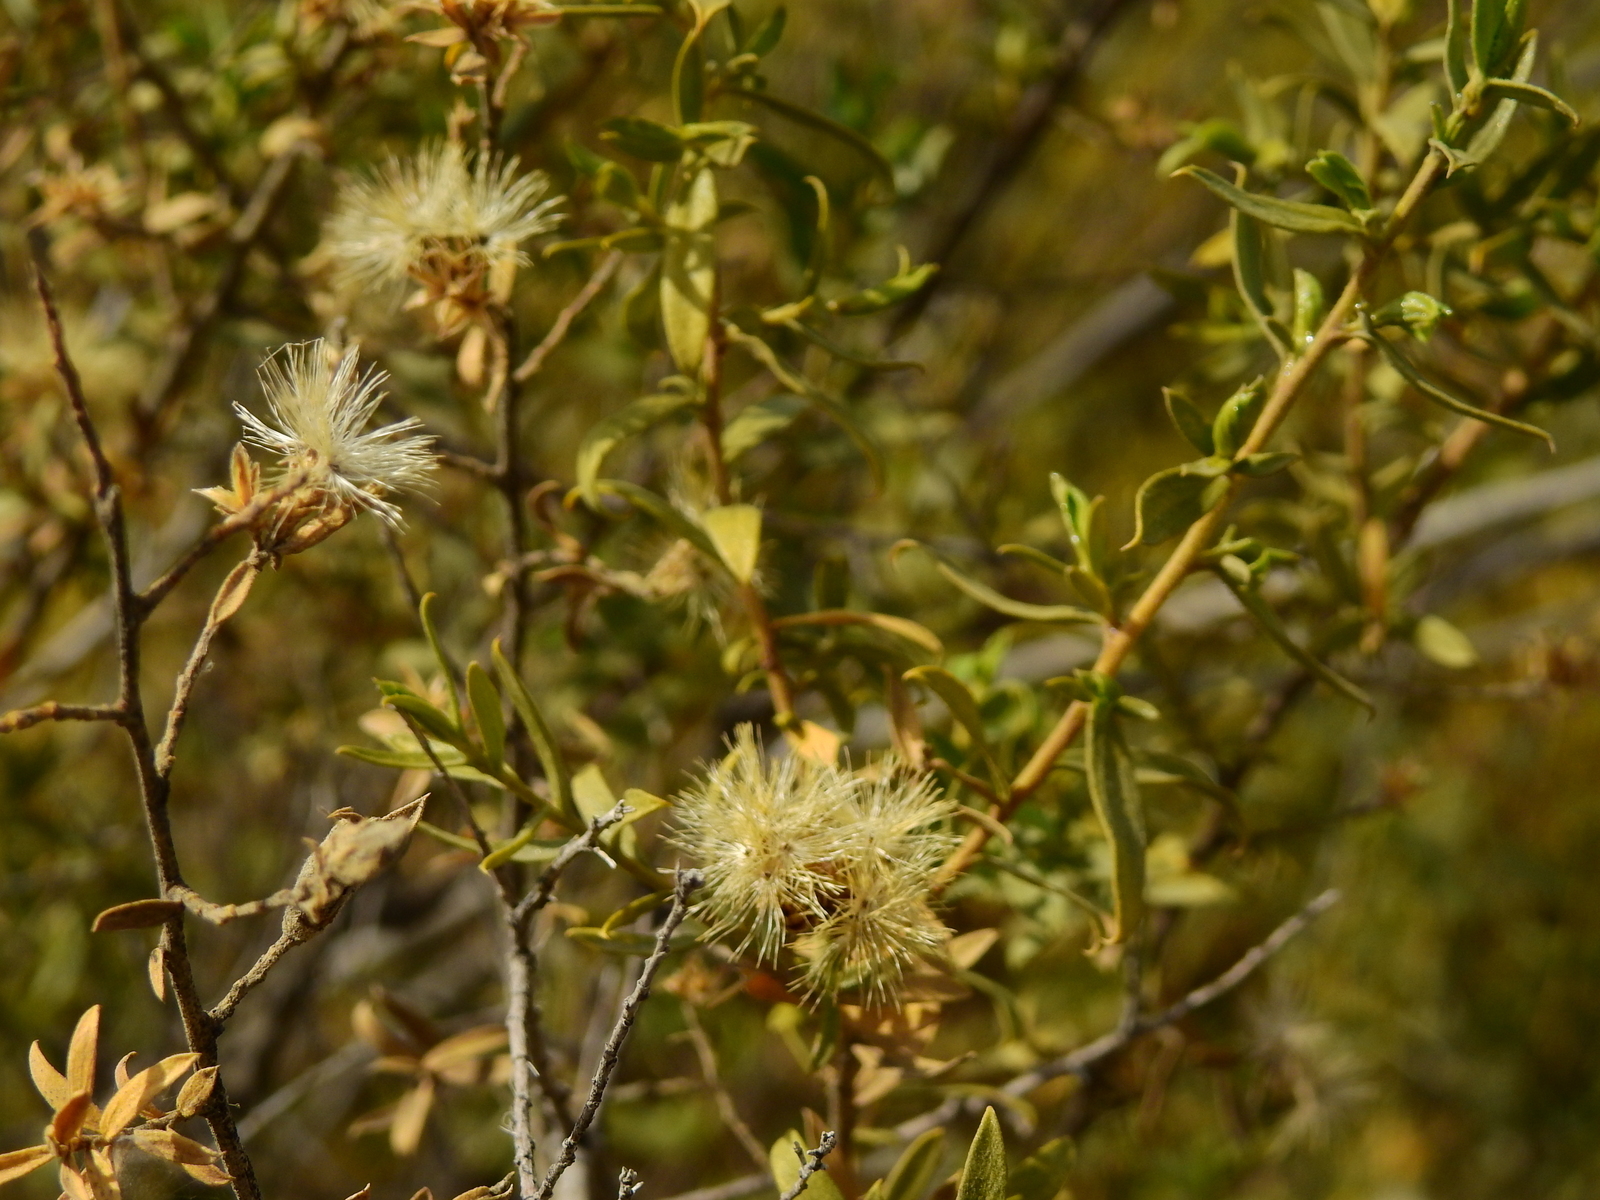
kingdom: Plantae
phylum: Tracheophyta
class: Magnoliopsida
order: Asterales
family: Asteraceae
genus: Gochnatia
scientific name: Gochnatia glutinosa
